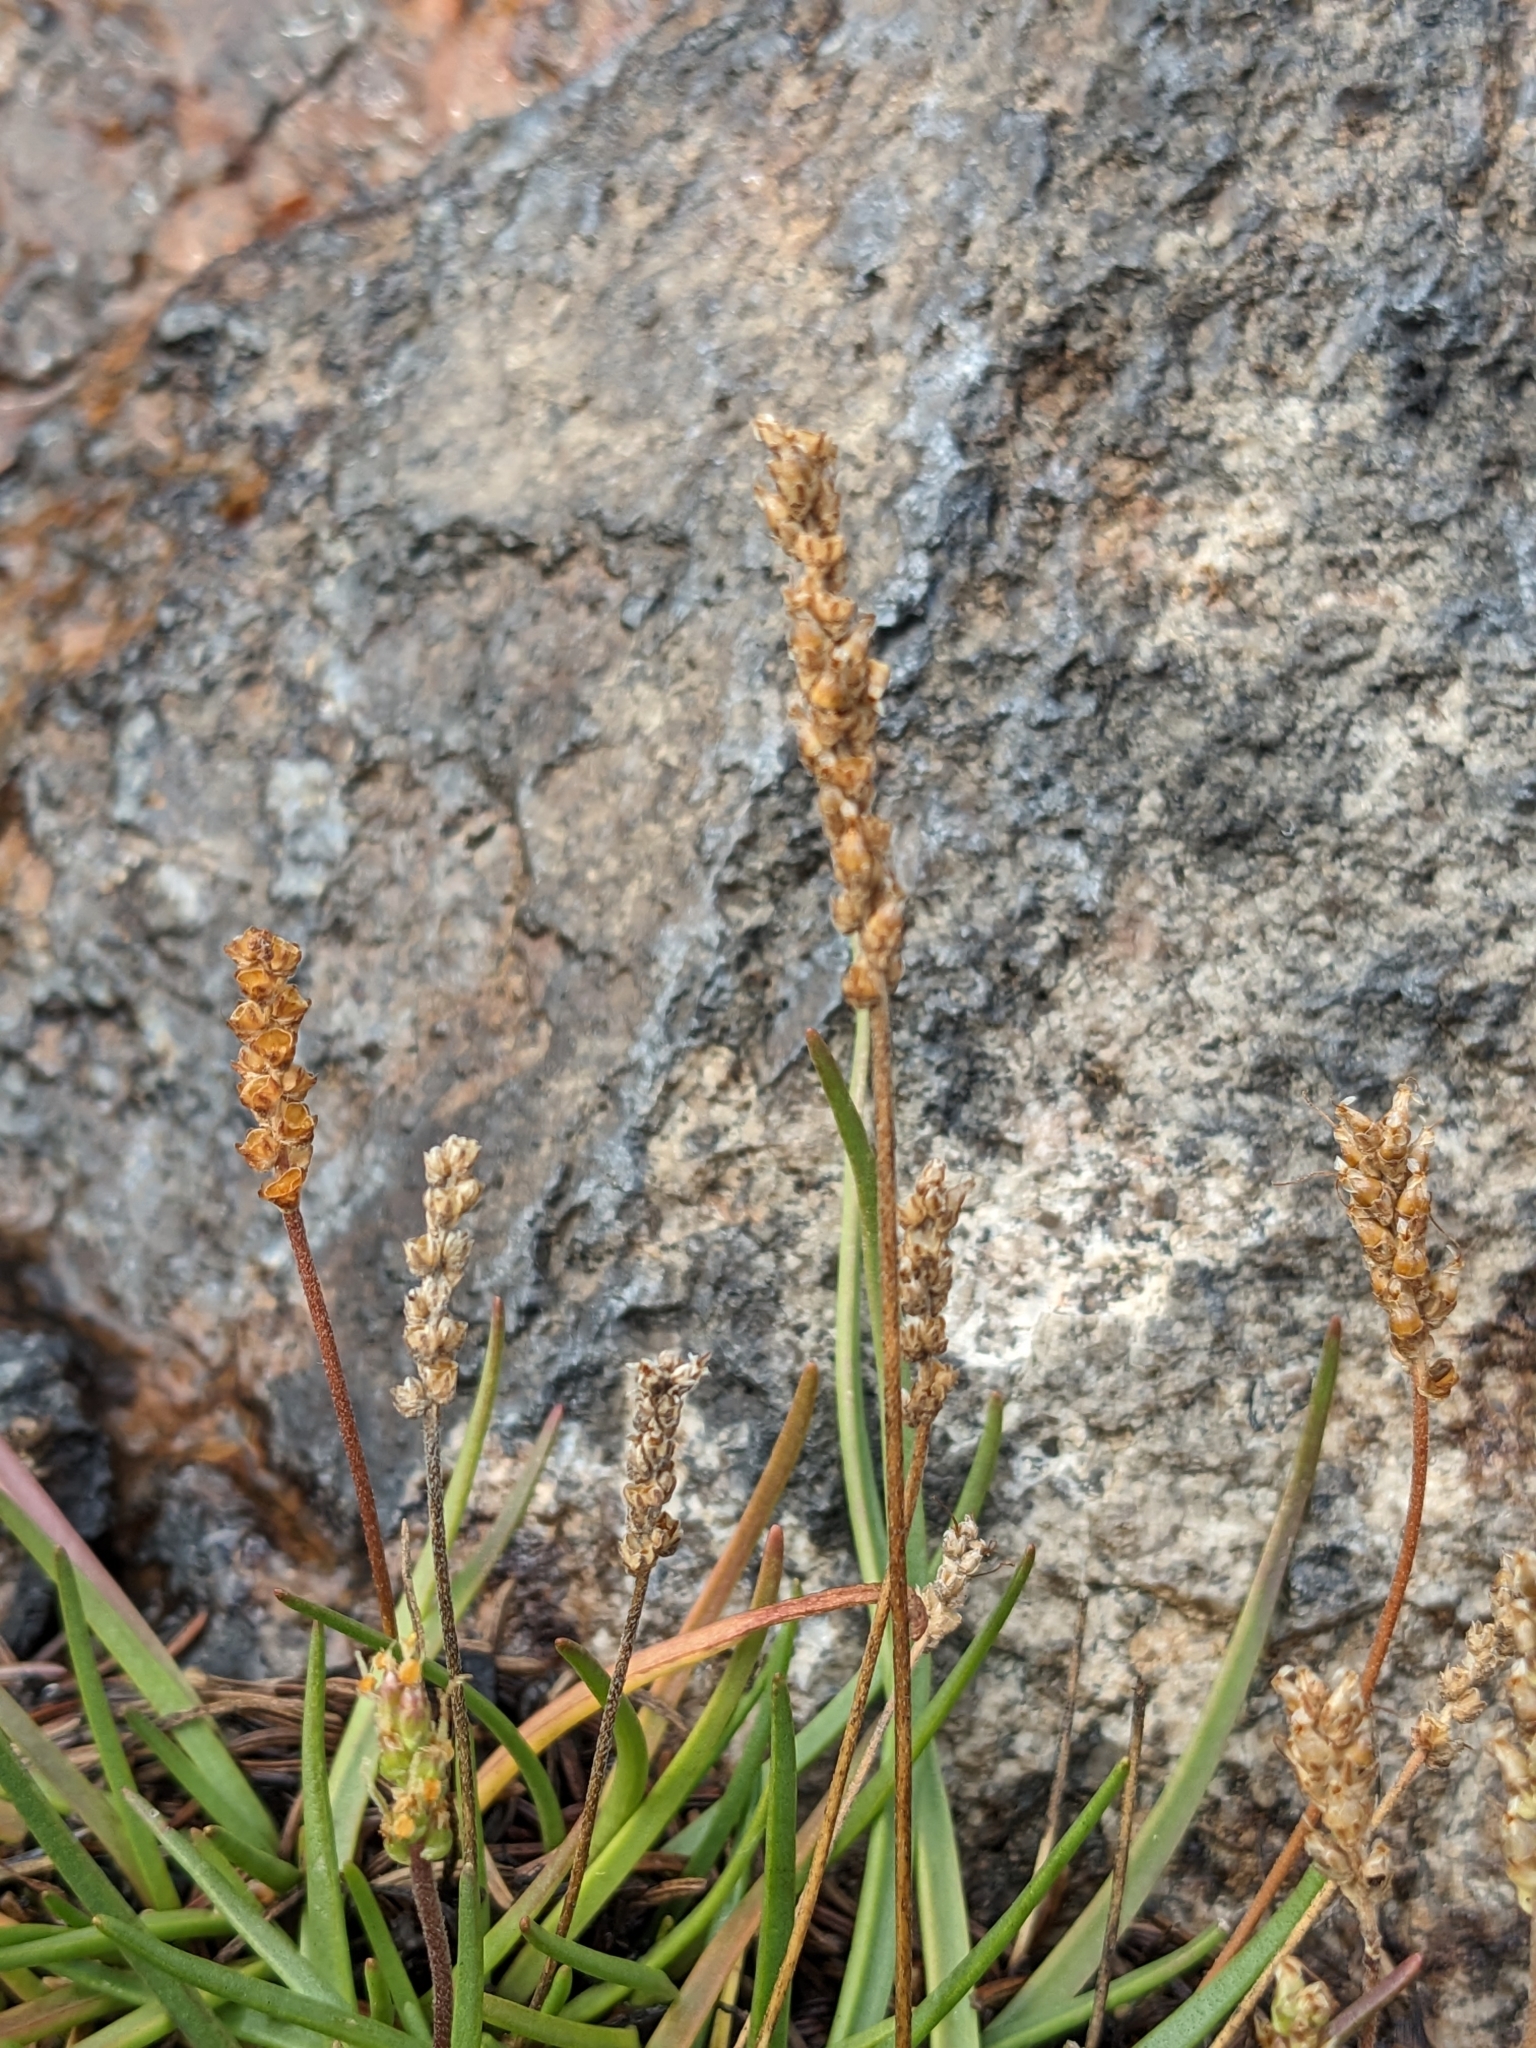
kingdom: Plantae
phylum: Tracheophyta
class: Magnoliopsida
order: Lamiales
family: Plantaginaceae
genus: Plantago
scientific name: Plantago maritima
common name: Sea plantain
